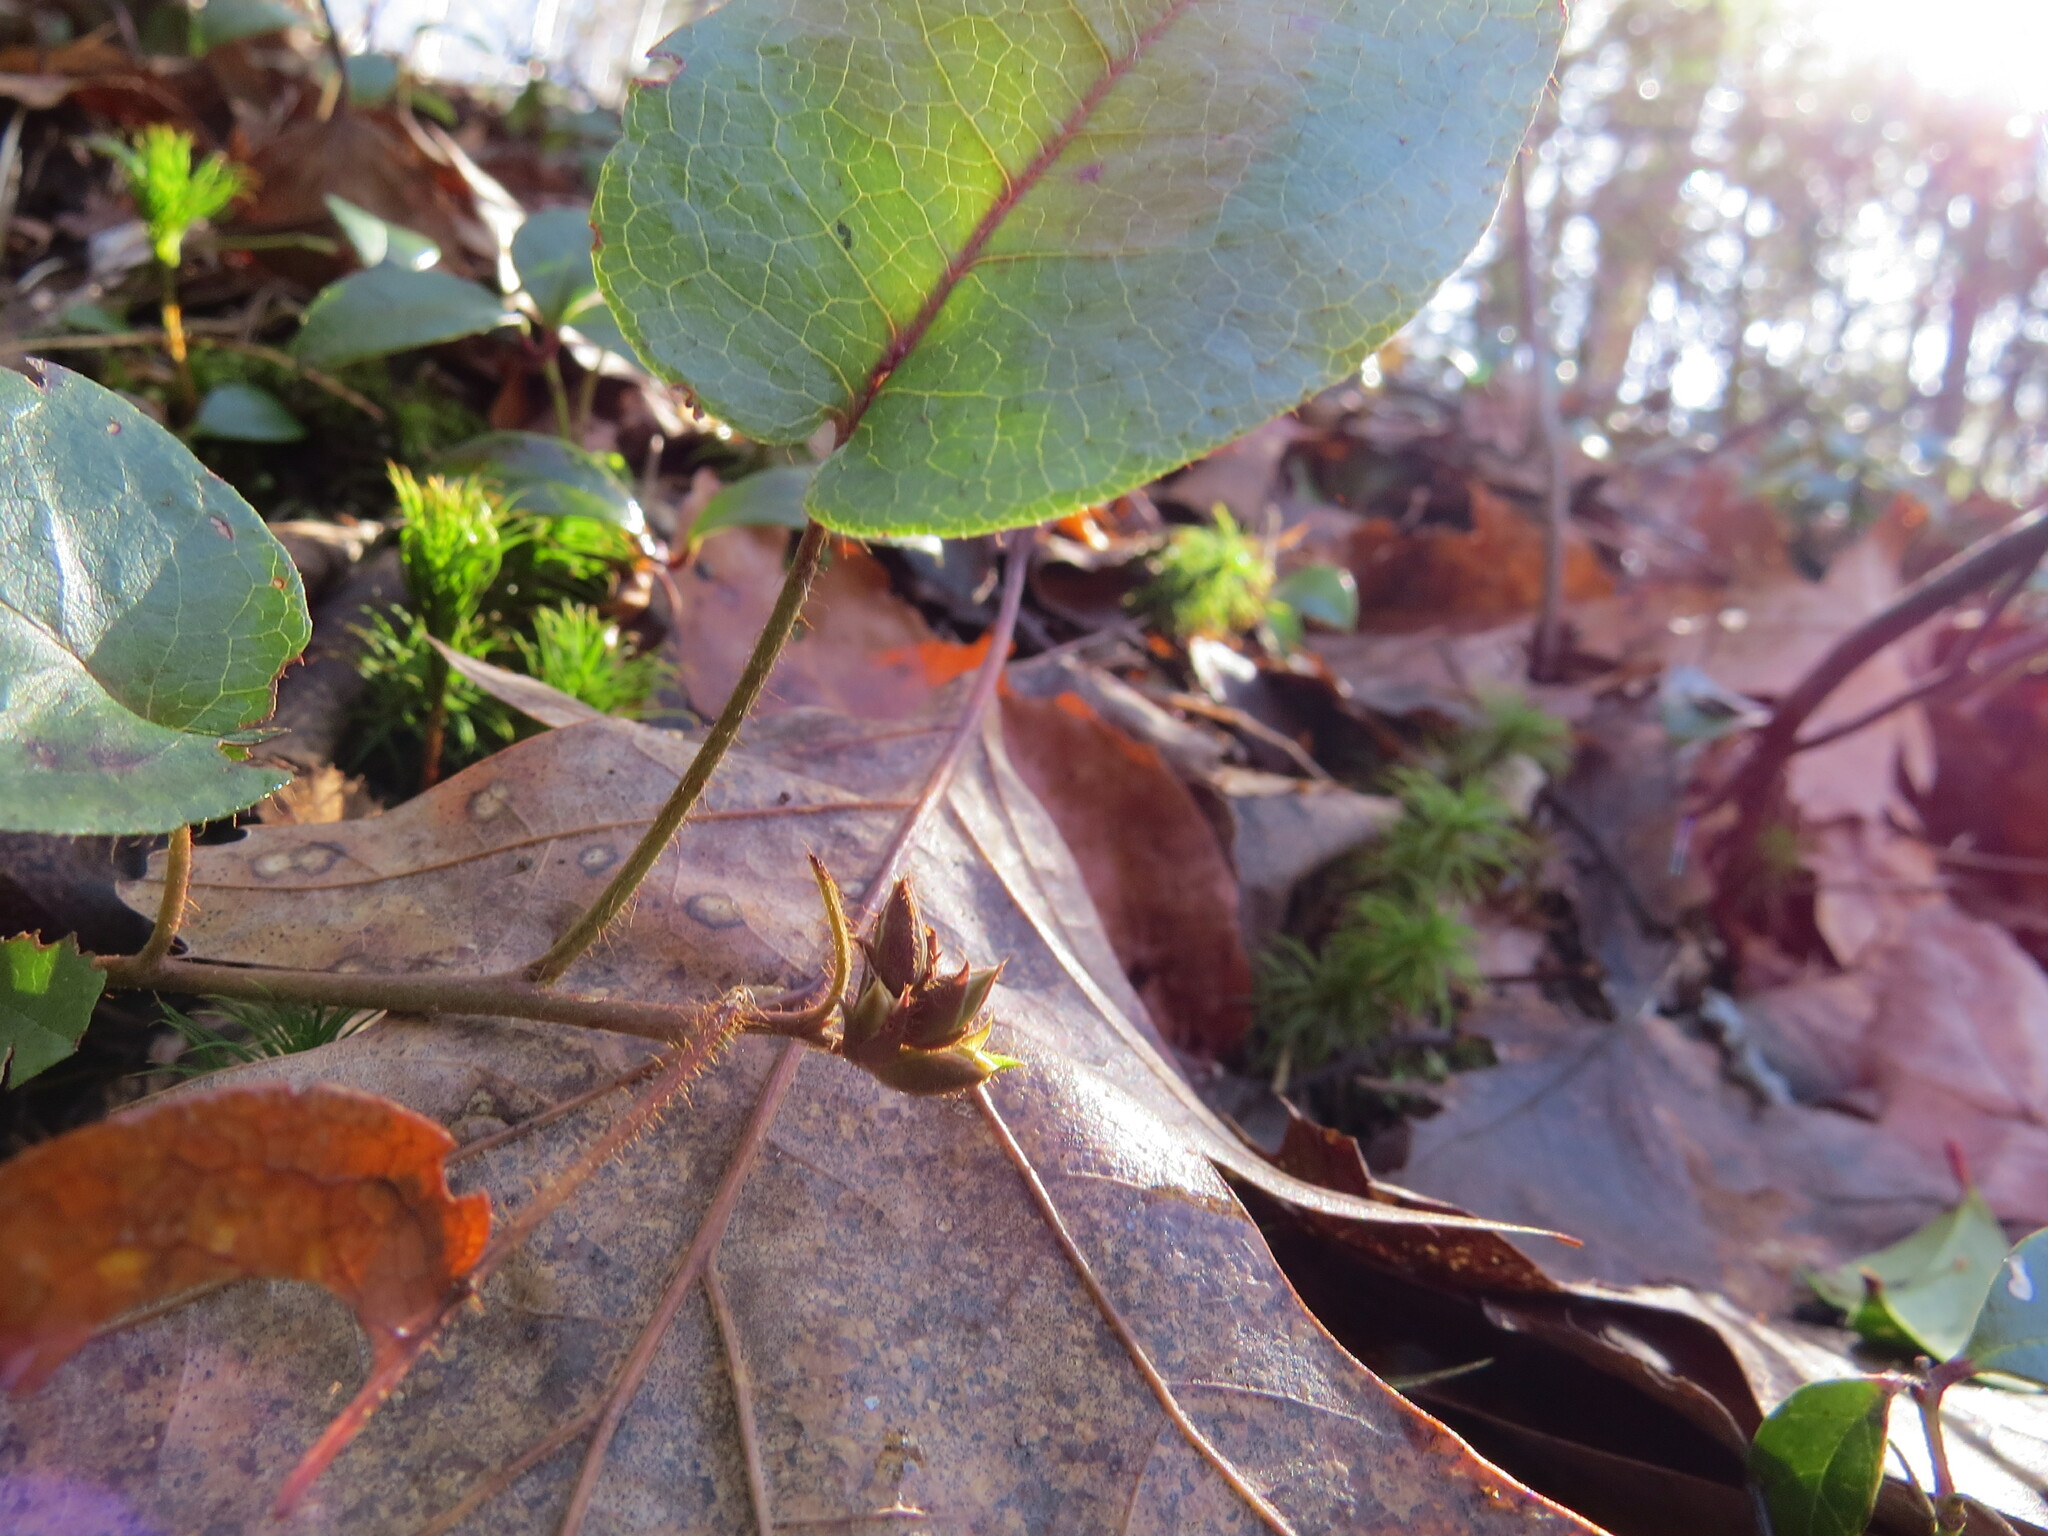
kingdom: Plantae
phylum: Tracheophyta
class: Magnoliopsida
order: Ericales
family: Ericaceae
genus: Epigaea
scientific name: Epigaea repens
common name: Gravelroot
